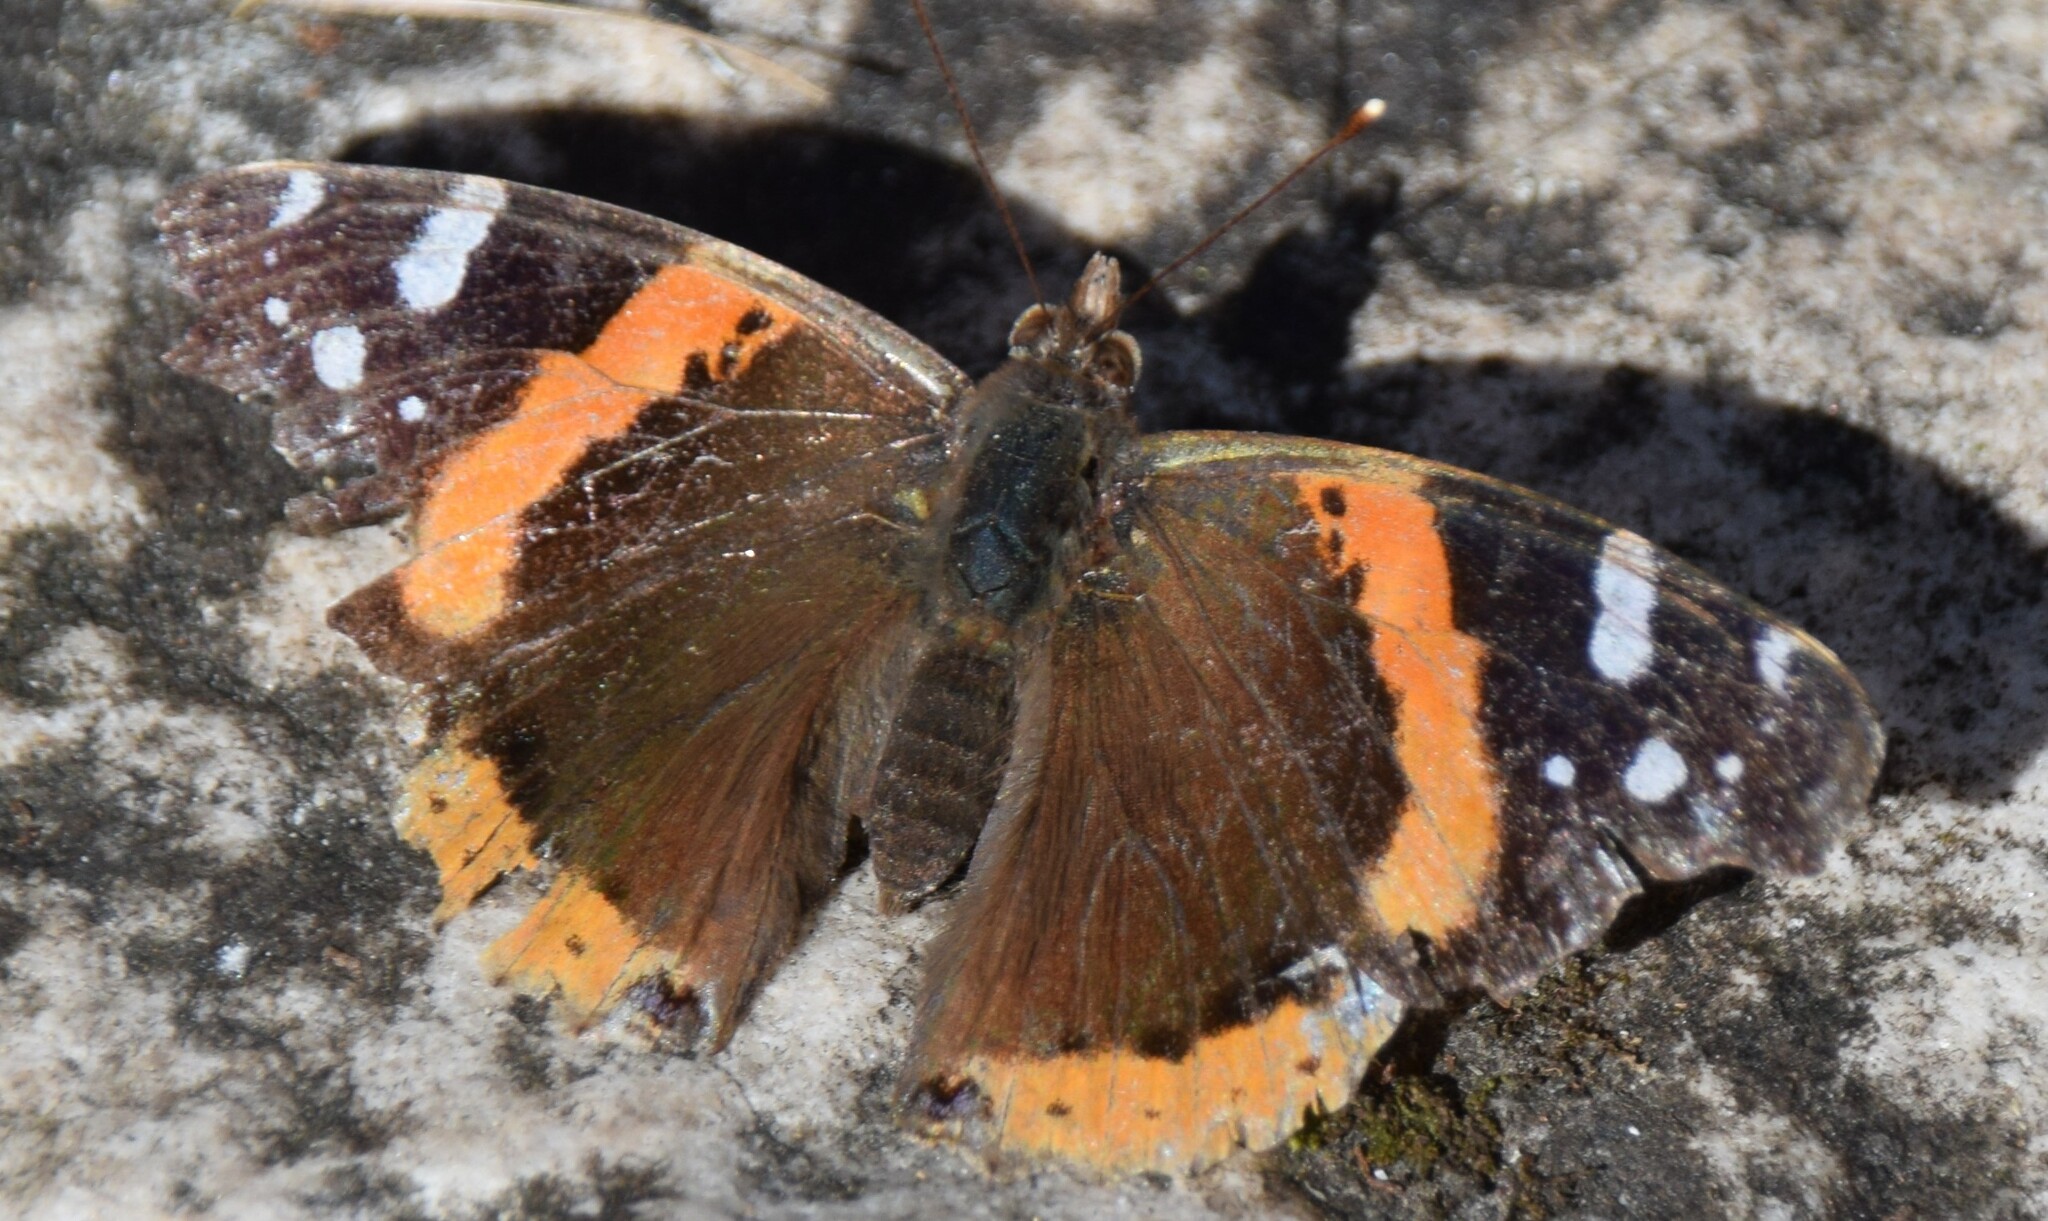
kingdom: Animalia
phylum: Arthropoda
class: Insecta
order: Lepidoptera
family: Nymphalidae
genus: Vanessa
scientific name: Vanessa atalanta
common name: Red admiral
